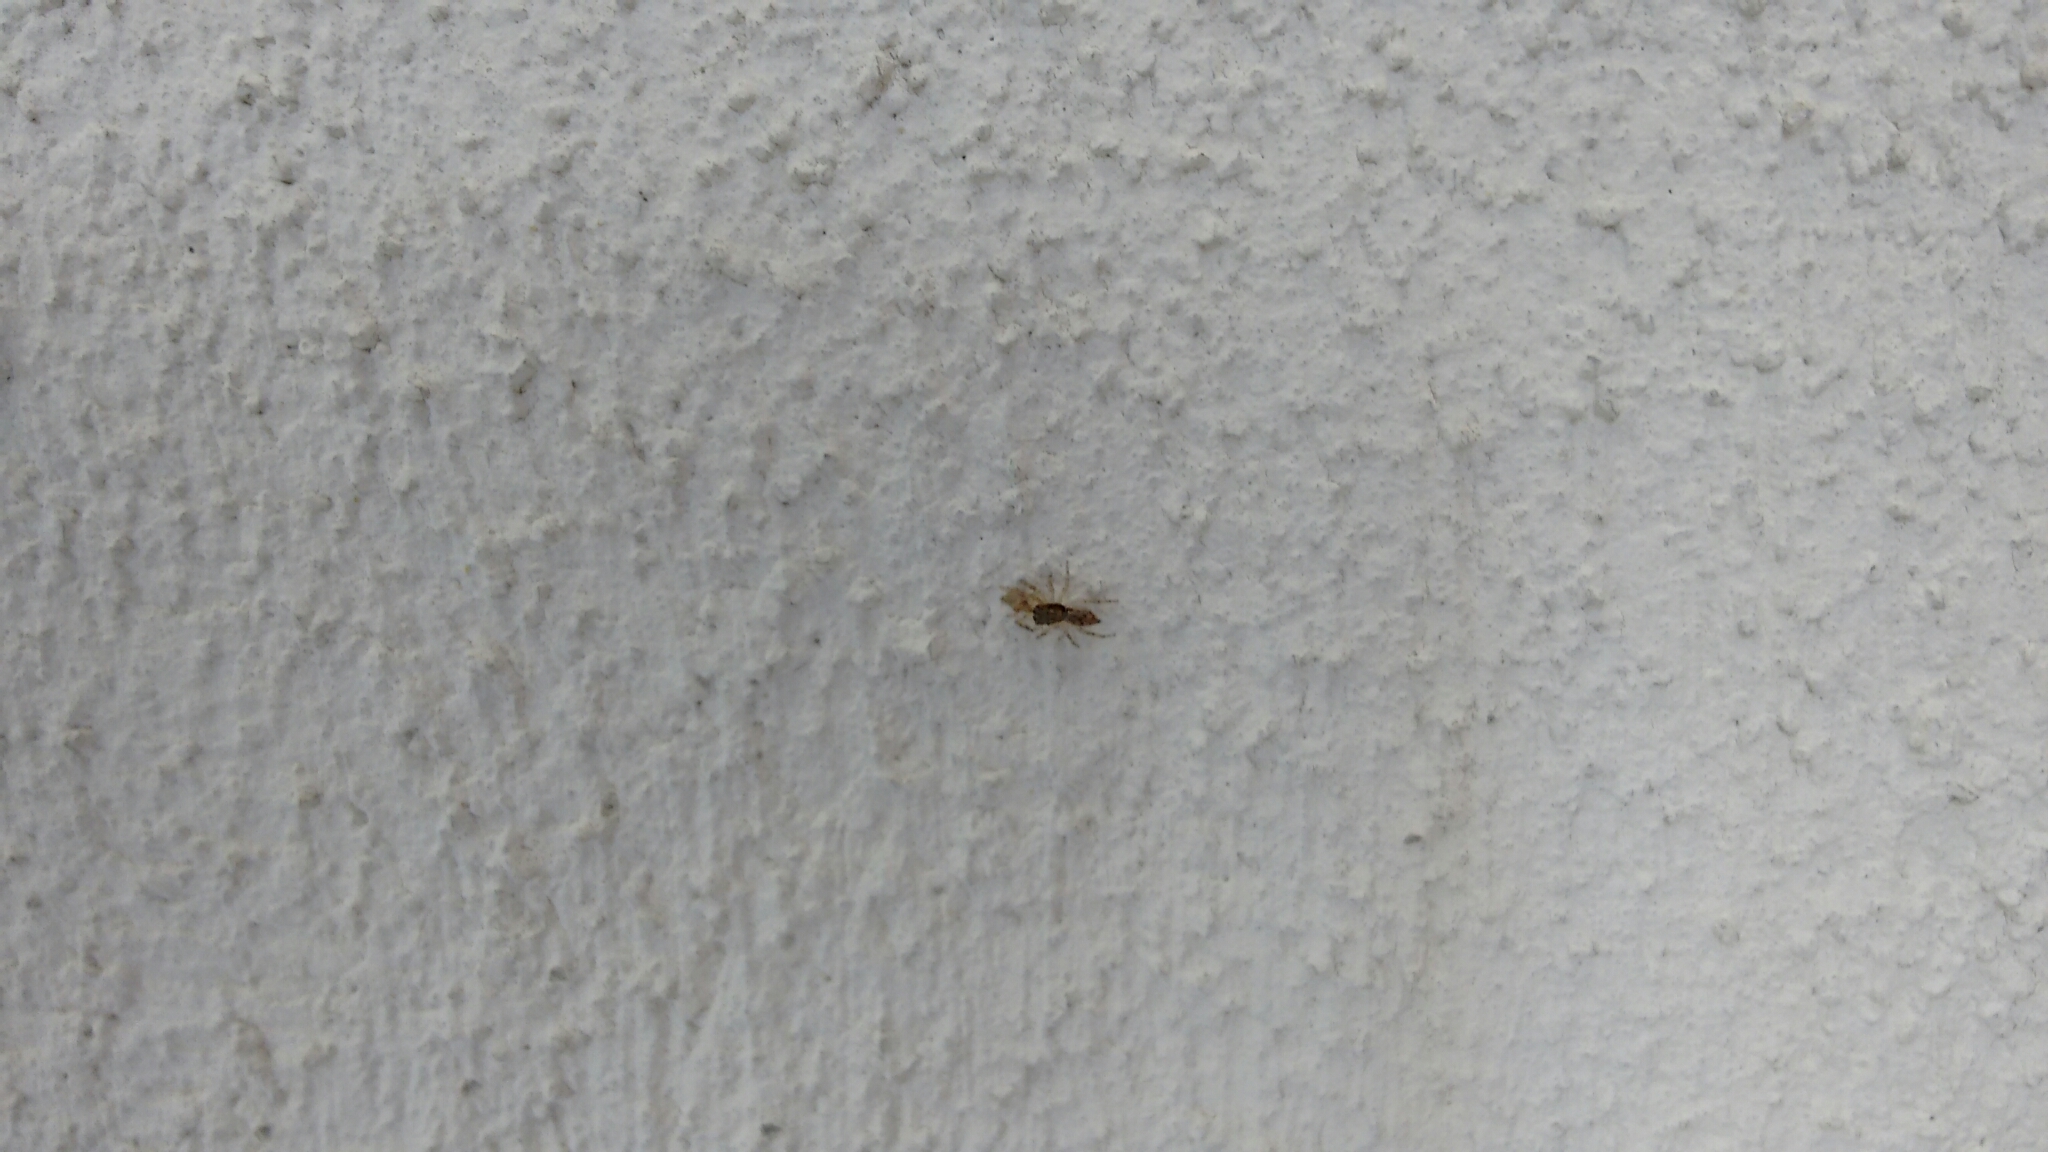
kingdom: Animalia
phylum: Arthropoda
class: Arachnida
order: Araneae
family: Salticidae
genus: Menemerus
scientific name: Menemerus bivittatus
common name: Gray wall jumper
